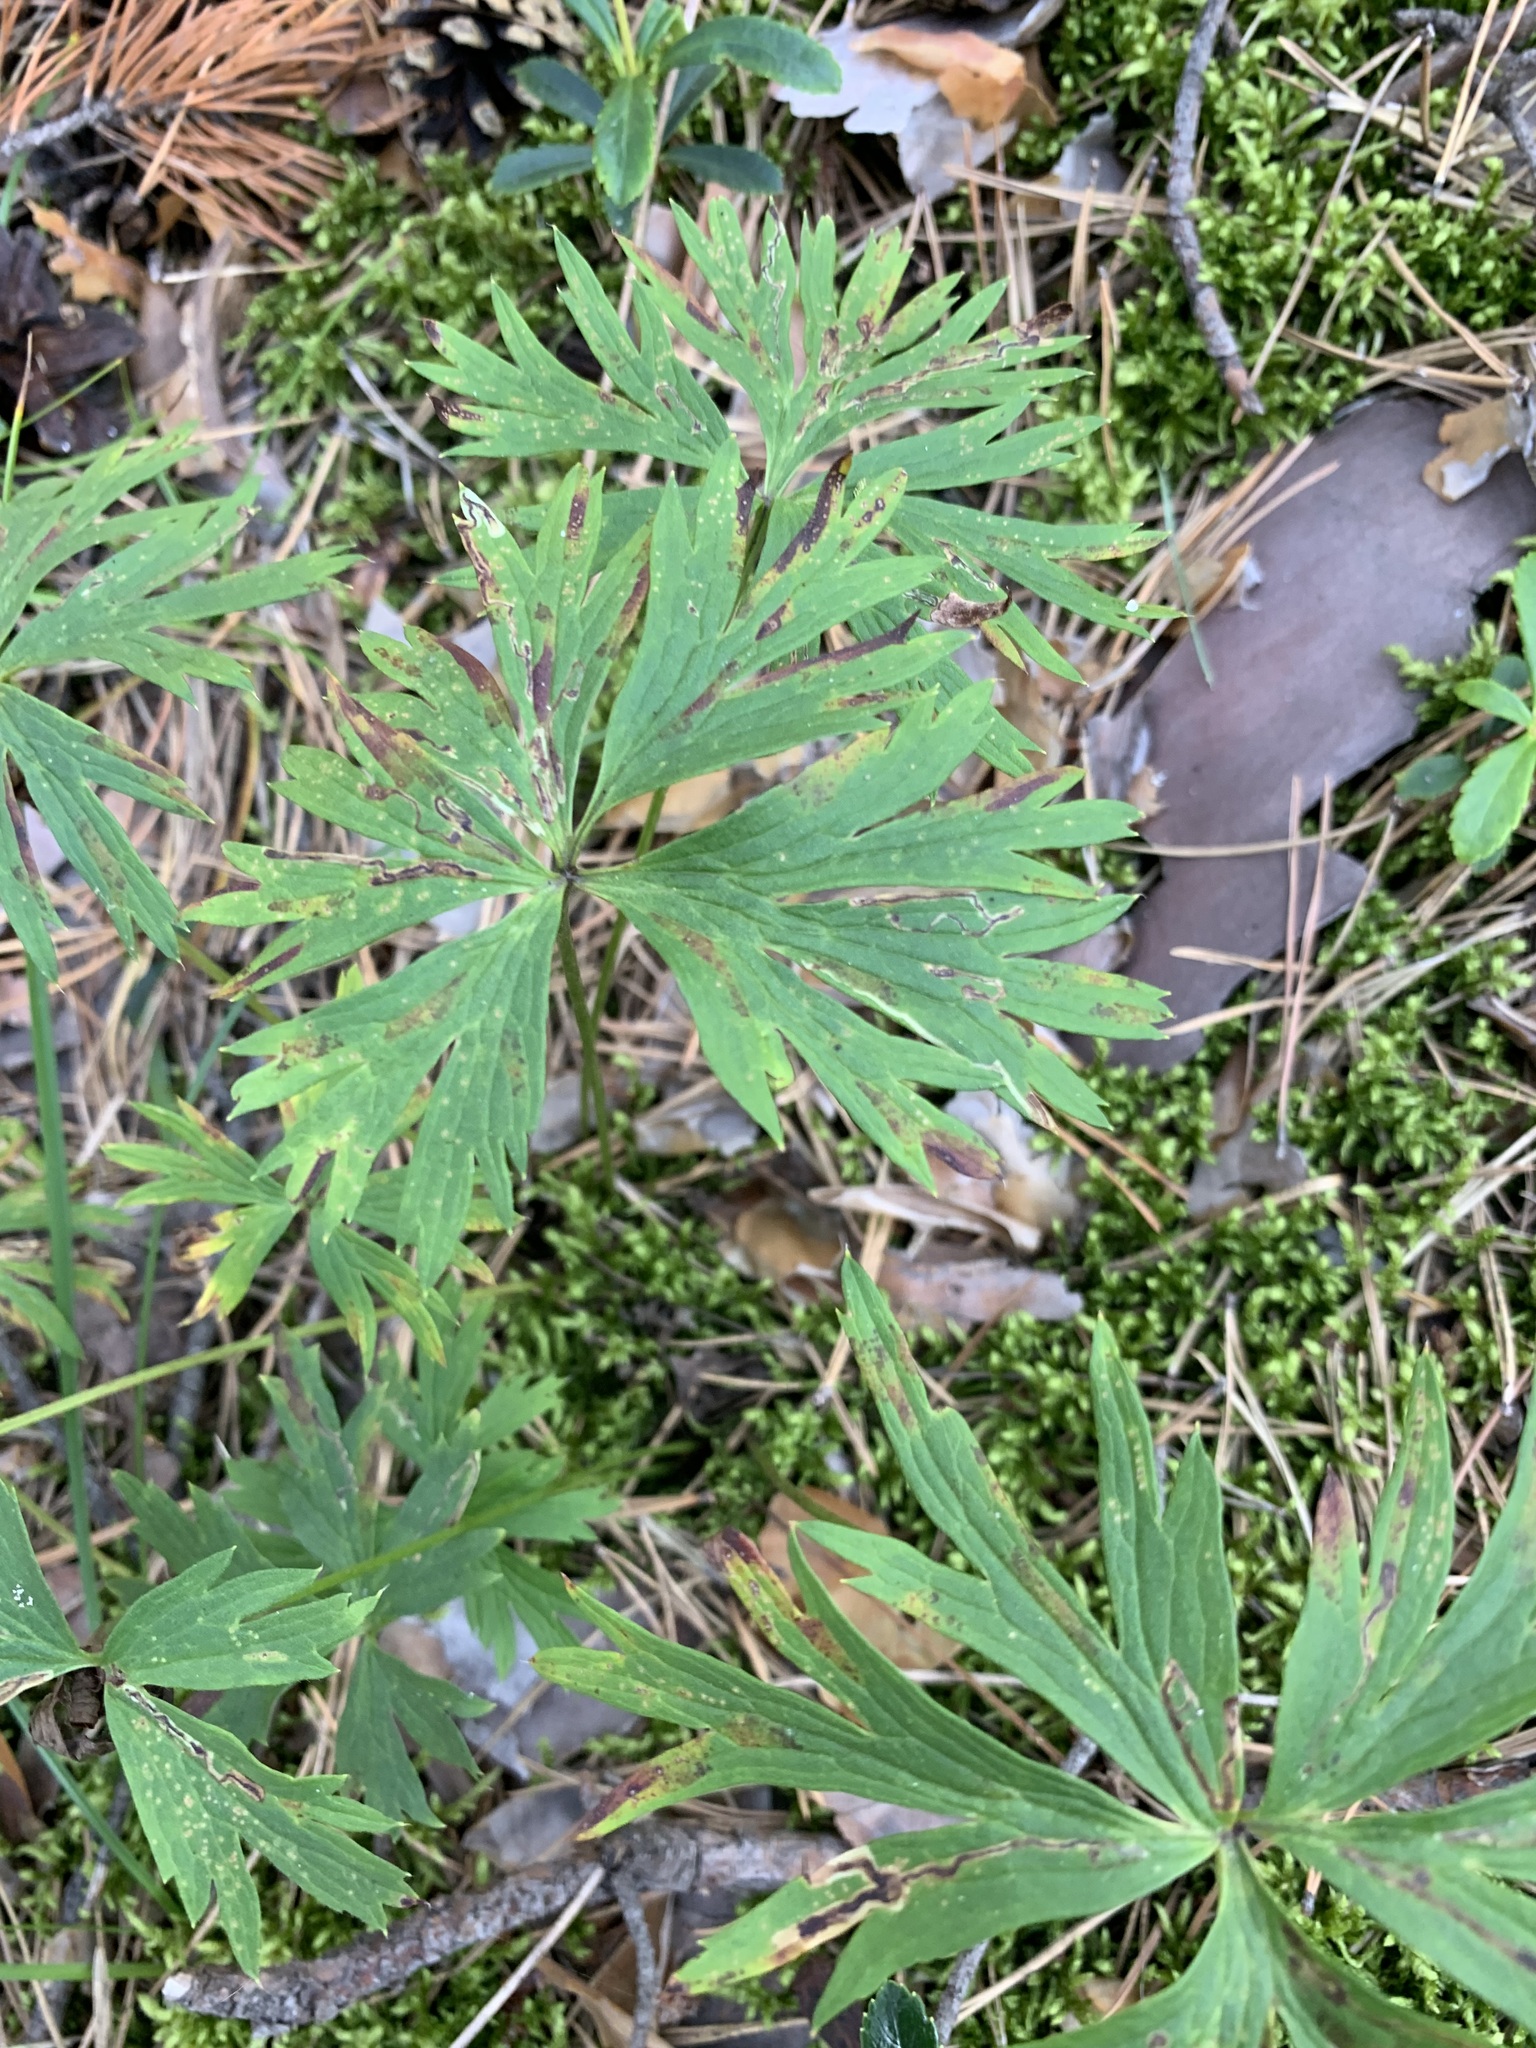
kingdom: Plantae
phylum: Tracheophyta
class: Magnoliopsida
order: Ranunculales
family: Ranunculaceae
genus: Pulsatilla
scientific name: Pulsatilla patens
